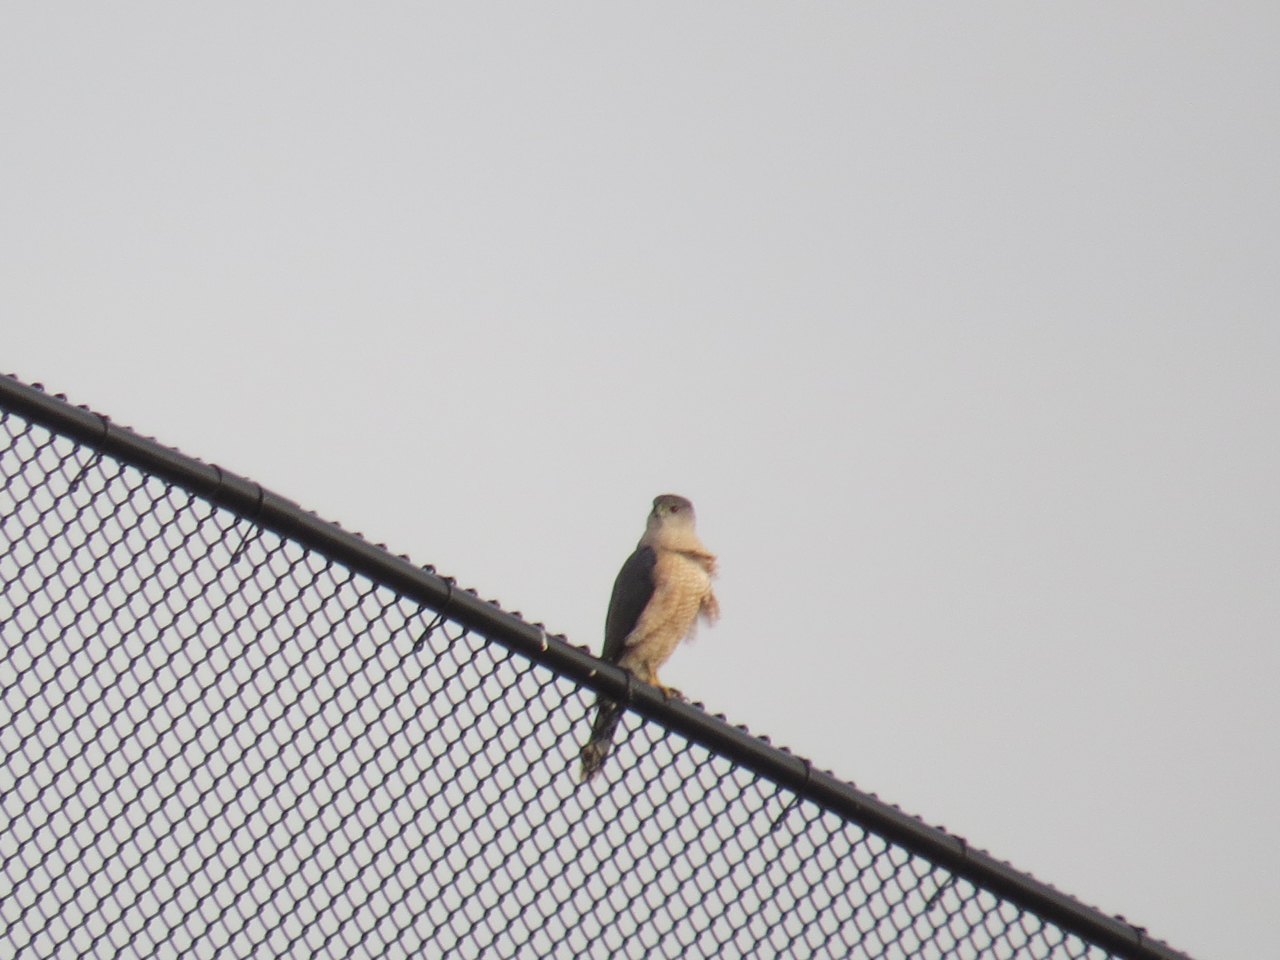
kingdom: Animalia
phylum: Chordata
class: Aves
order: Accipitriformes
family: Accipitridae
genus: Accipiter
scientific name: Accipiter cooperii
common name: Cooper's hawk
